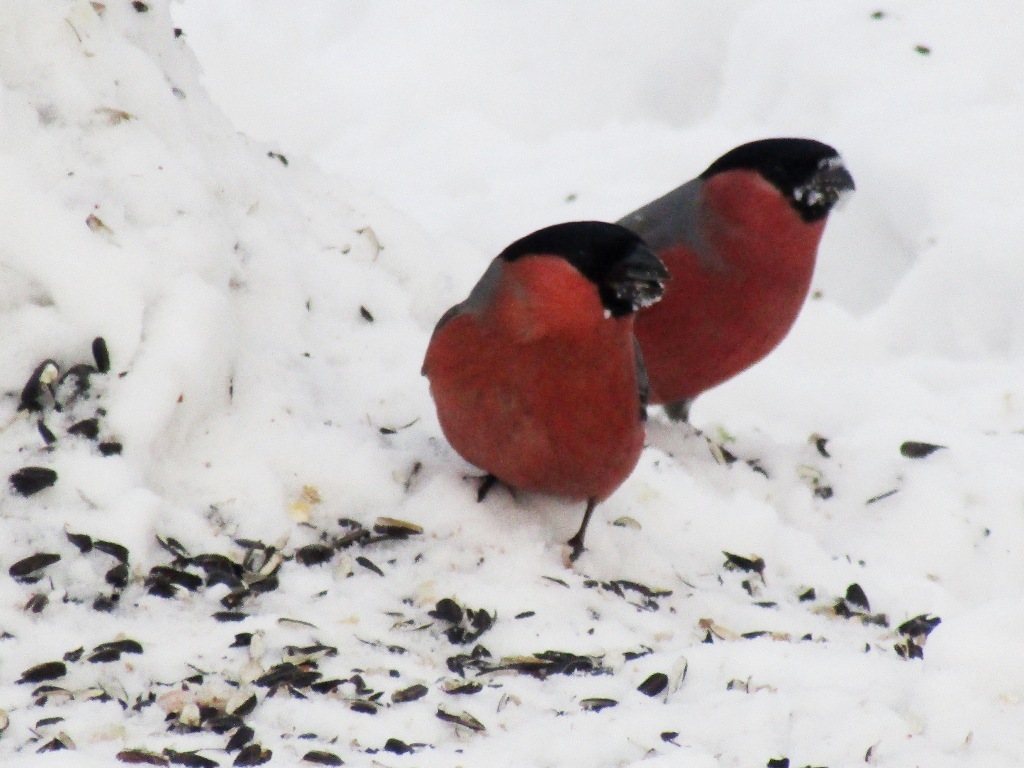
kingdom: Animalia
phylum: Chordata
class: Aves
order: Passeriformes
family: Fringillidae
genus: Pyrrhula
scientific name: Pyrrhula pyrrhula
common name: Eurasian bullfinch
